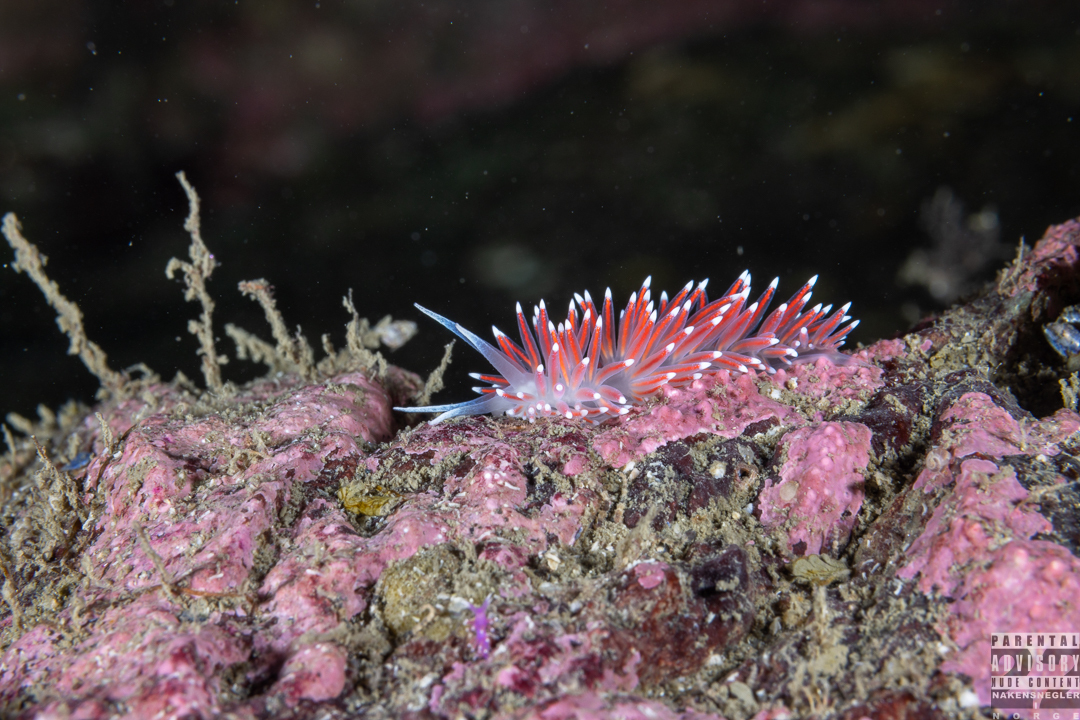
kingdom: Animalia
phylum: Mollusca
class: Gastropoda
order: Nudibranchia
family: Flabellinidae
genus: Carronella
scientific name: Carronella pellucida
